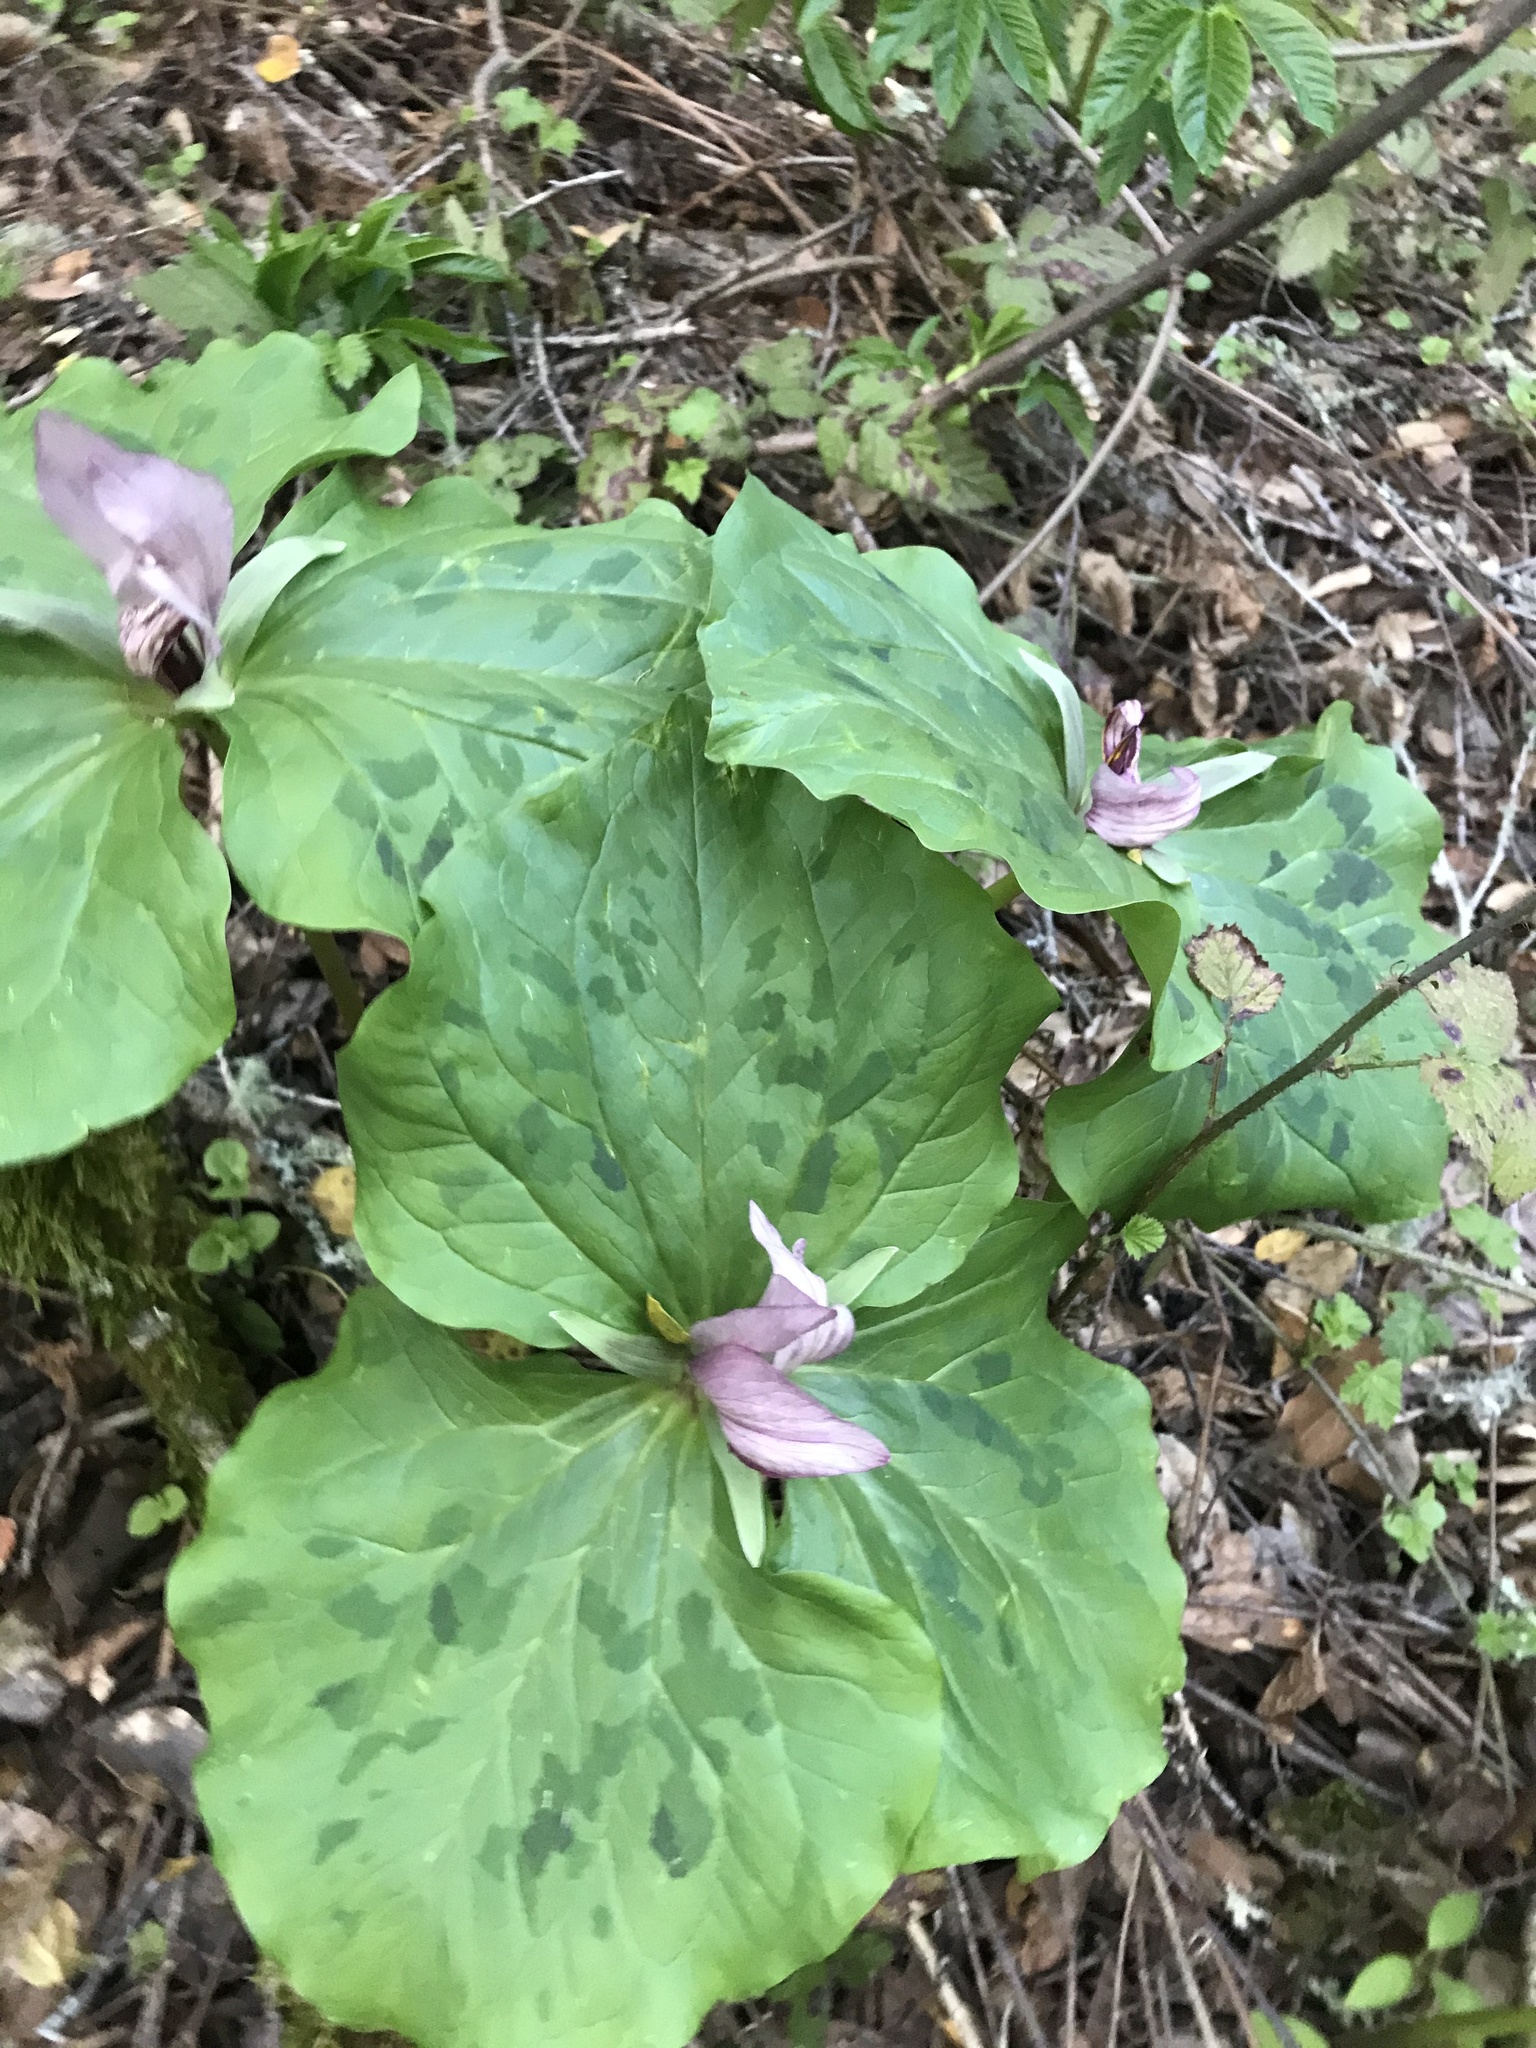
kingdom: Plantae
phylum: Tracheophyta
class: Liliopsida
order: Liliales
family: Melanthiaceae
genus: Trillium
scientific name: Trillium chloropetalum
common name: Giant trillium
